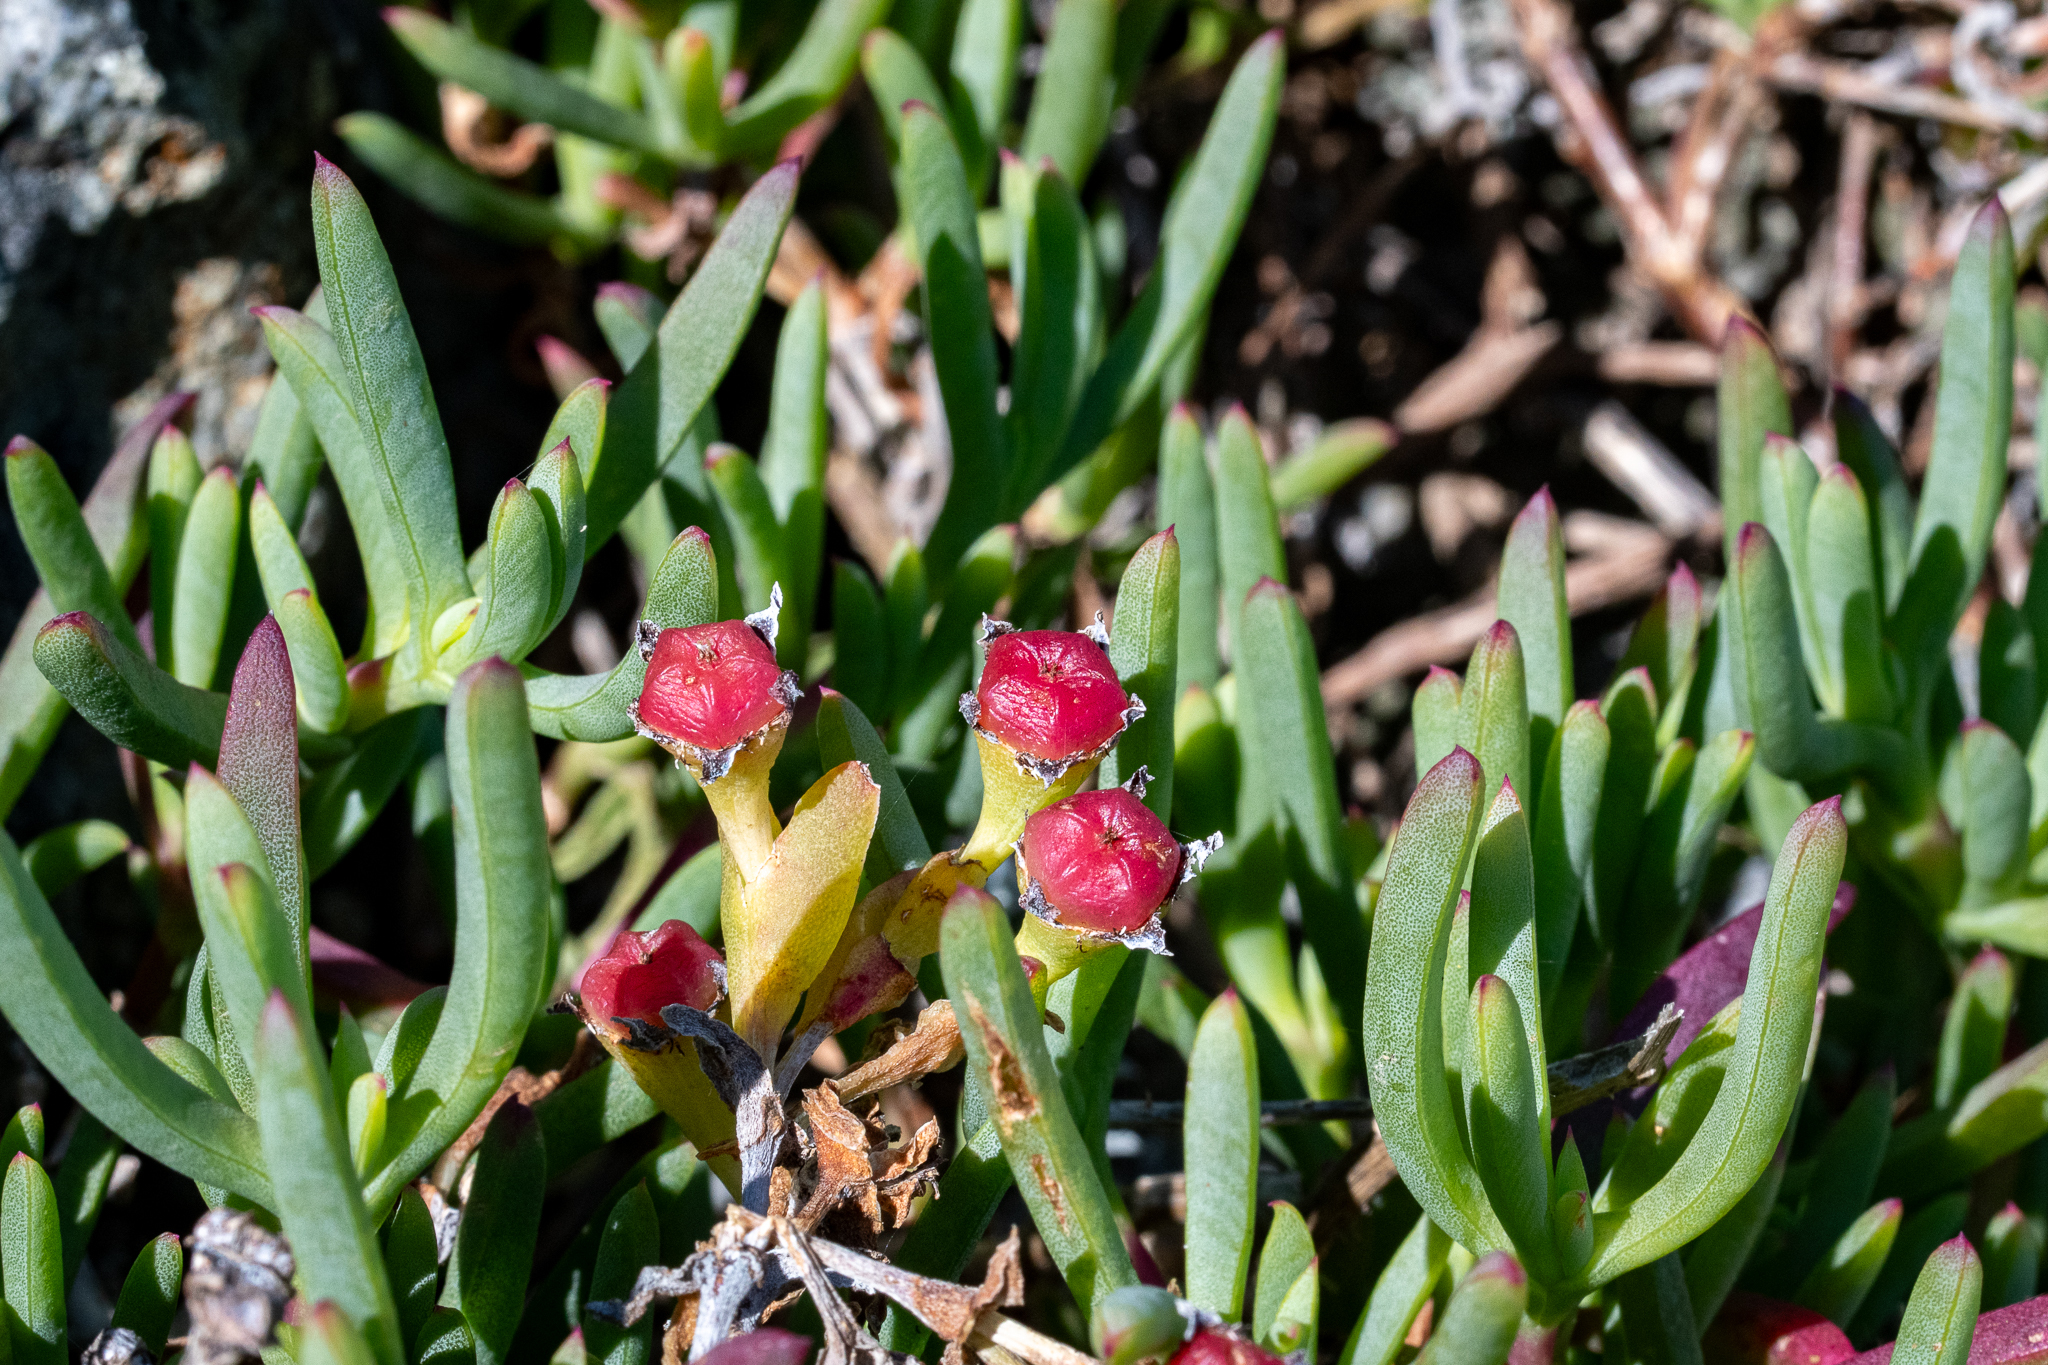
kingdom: Plantae
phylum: Tracheophyta
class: Magnoliopsida
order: Caryophyllales
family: Aizoaceae
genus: Ruschia
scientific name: Ruschia macowanii
